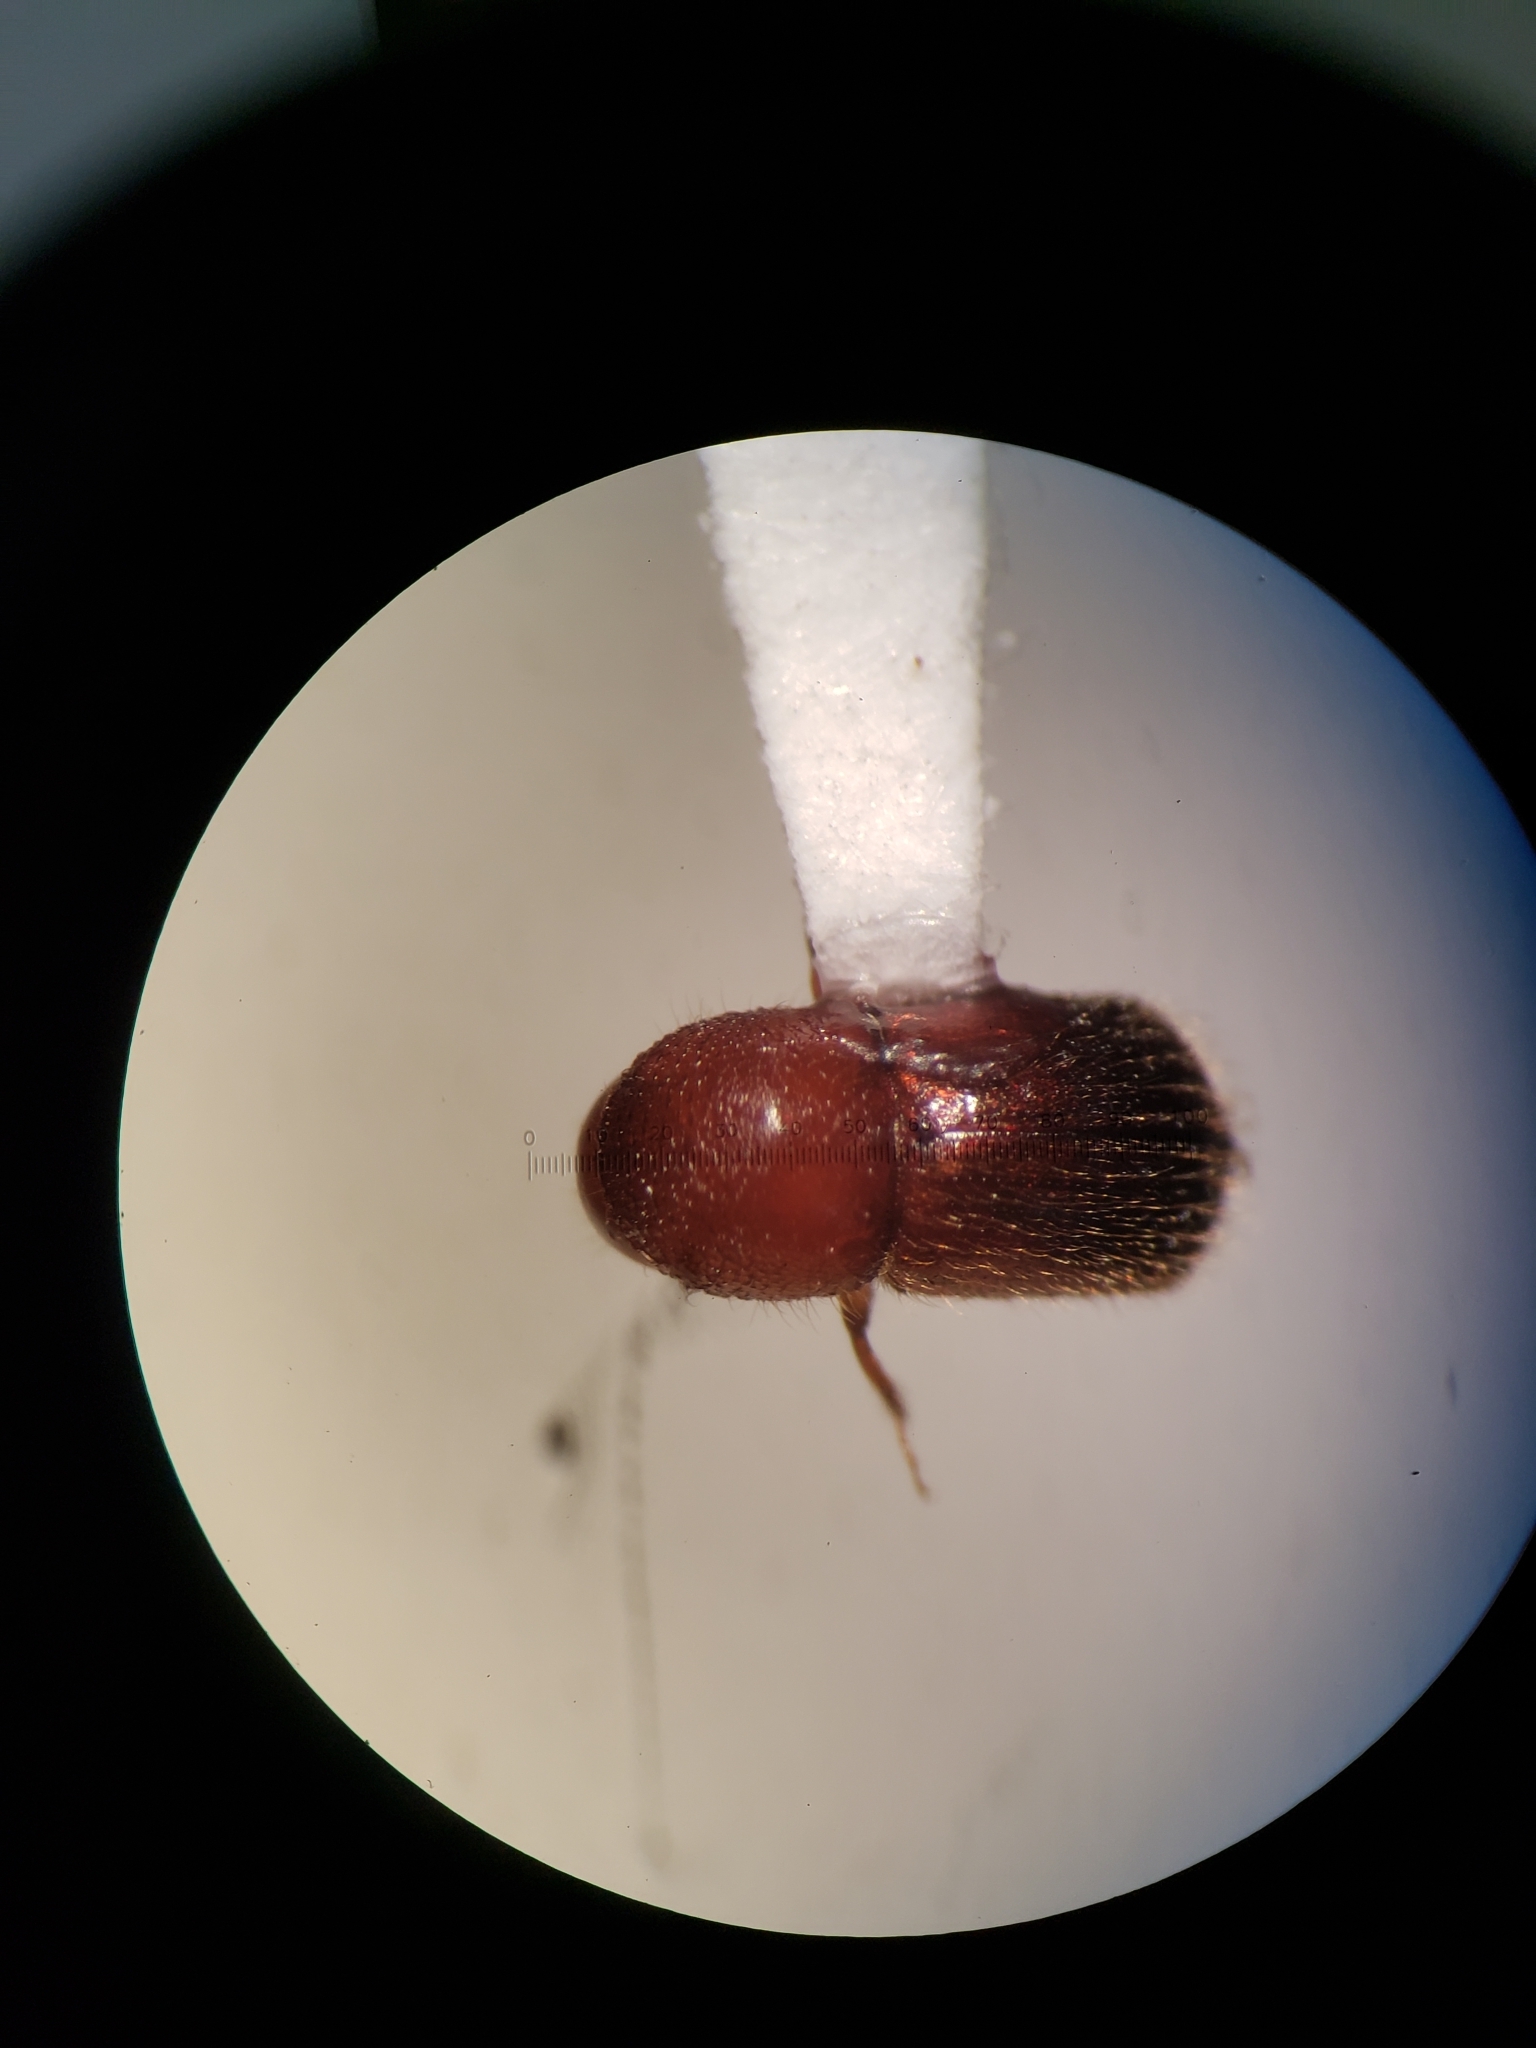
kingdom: Animalia
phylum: Arthropoda
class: Insecta
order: Coleoptera
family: Curculionidae
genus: Xylosandrus
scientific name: Xylosandrus crassiusculus
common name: Granulate ambrosia beetle
